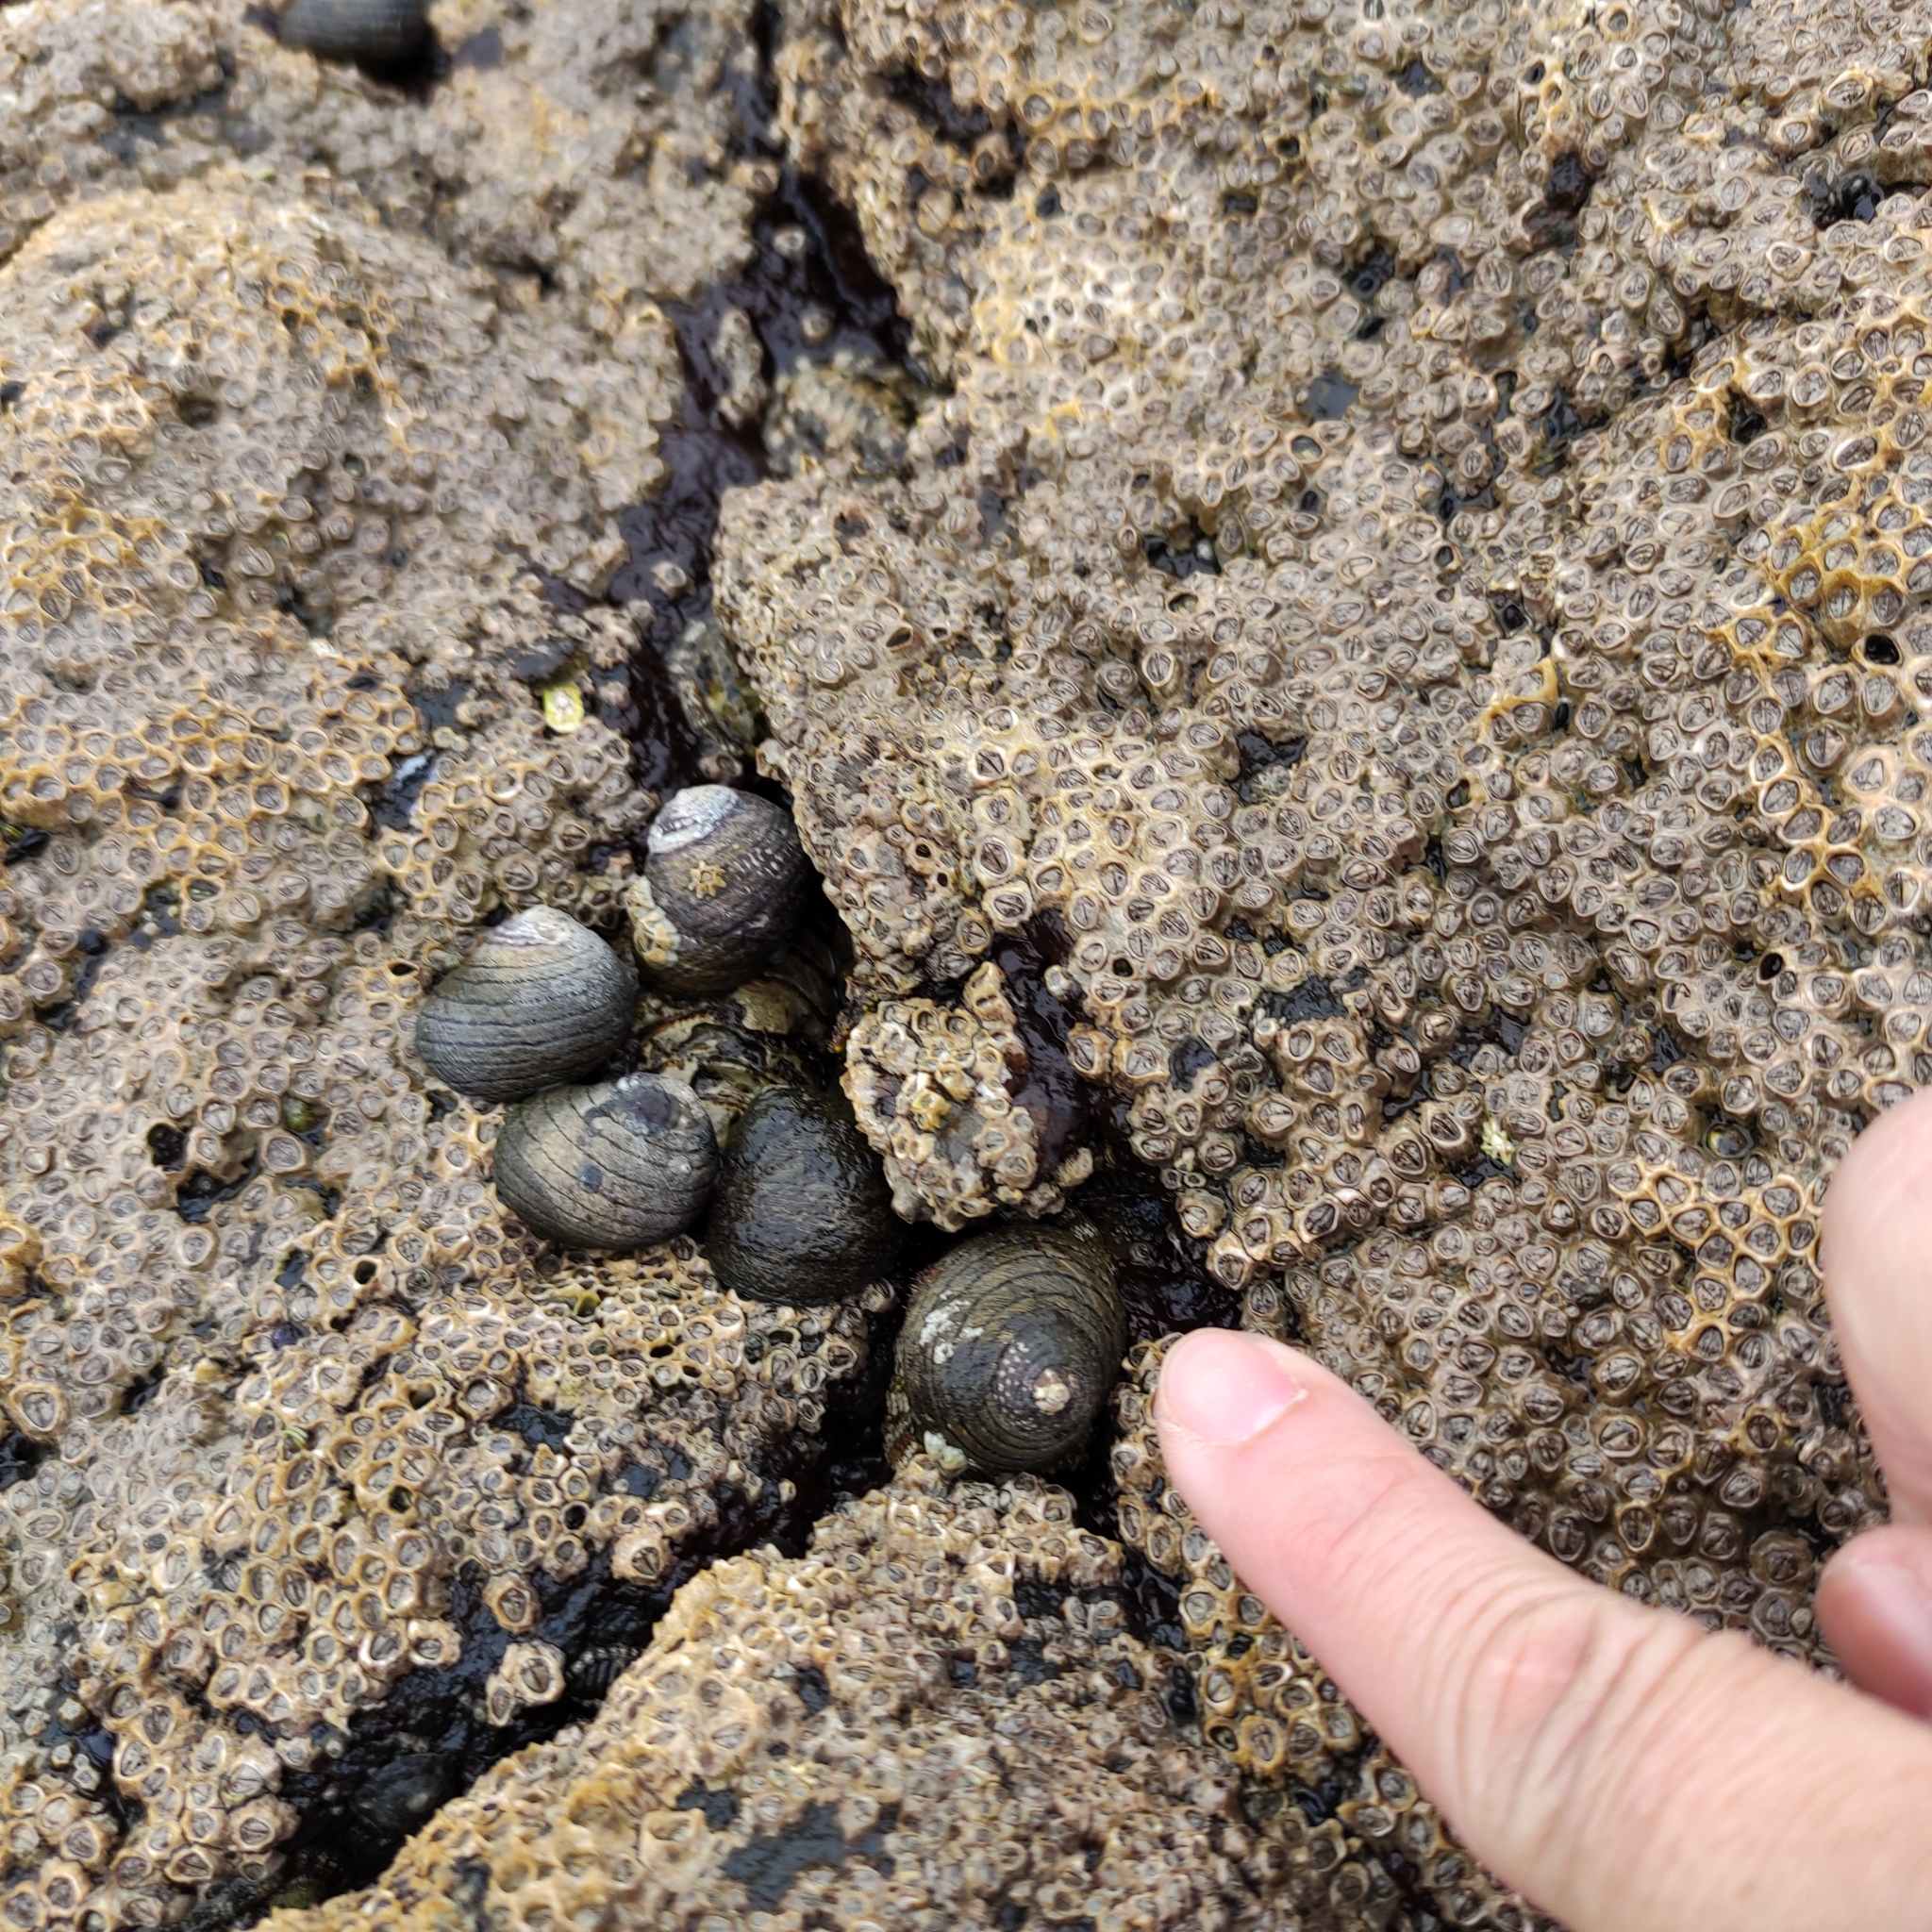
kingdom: Animalia
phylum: Mollusca
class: Gastropoda
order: Trochida
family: Trochidae
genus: Diloma
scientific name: Diloma aethiops
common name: Scorched monodont
